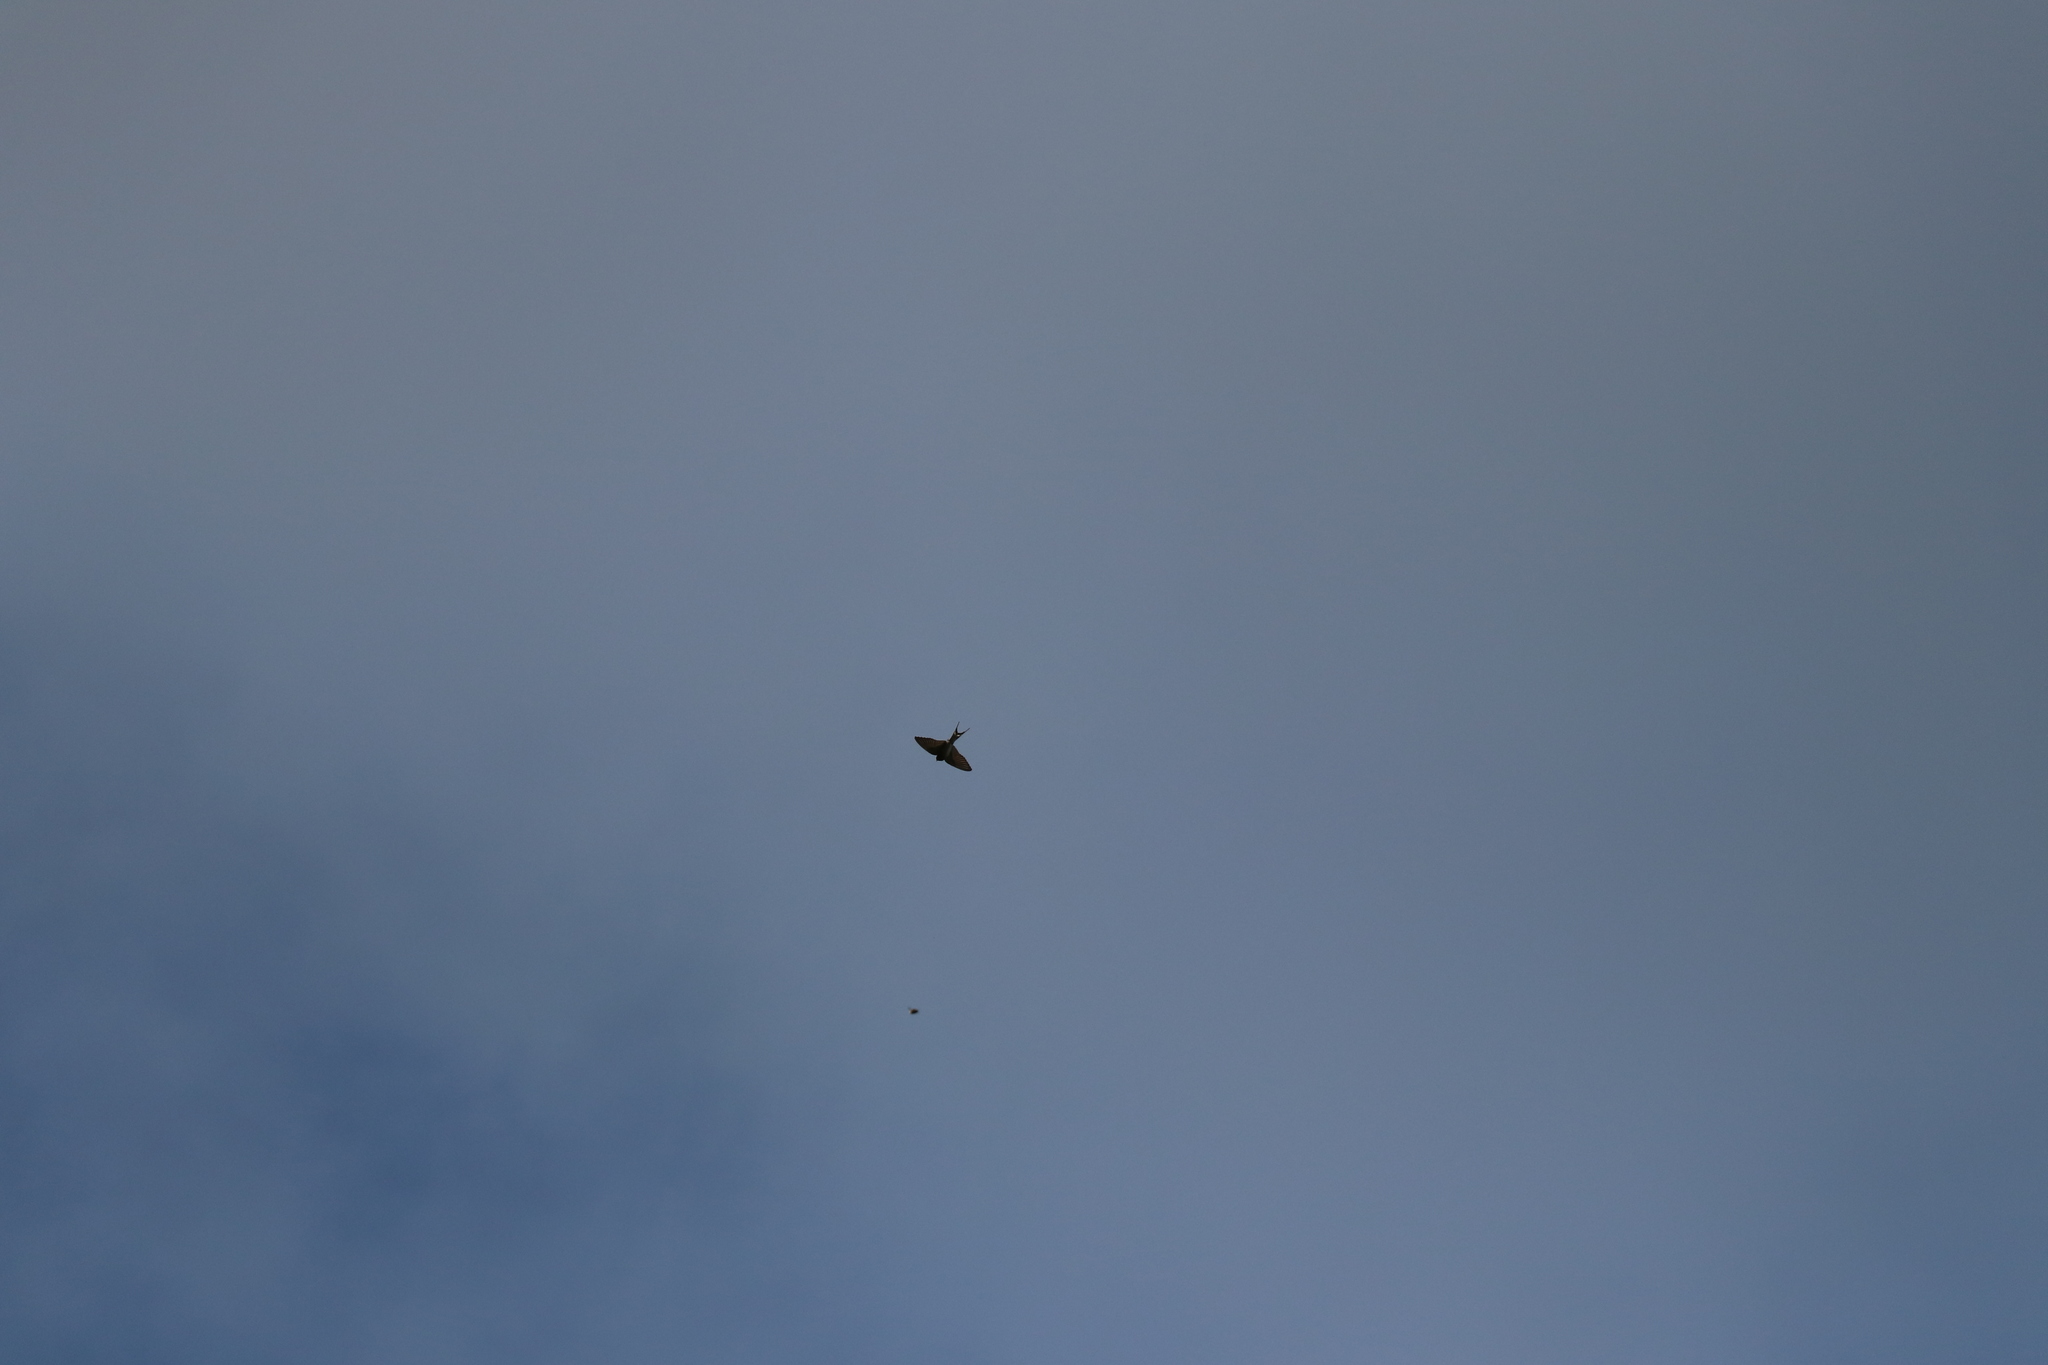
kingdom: Animalia
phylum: Chordata
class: Aves
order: Passeriformes
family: Hirundinidae
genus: Hirundo
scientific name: Hirundo neoxena
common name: Welcome swallow
